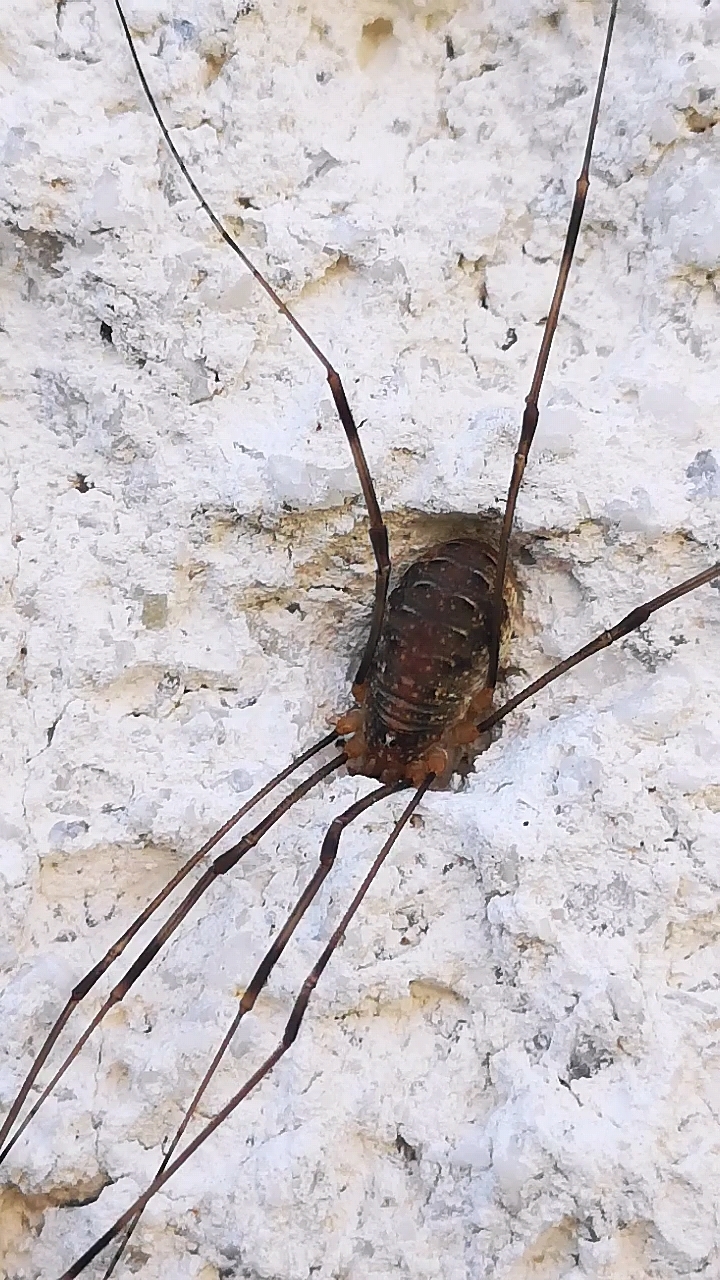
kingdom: Animalia
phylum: Arthropoda
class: Arachnida
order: Opiliones
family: Phalangiidae
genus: Opilio
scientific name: Opilio canestrinii
